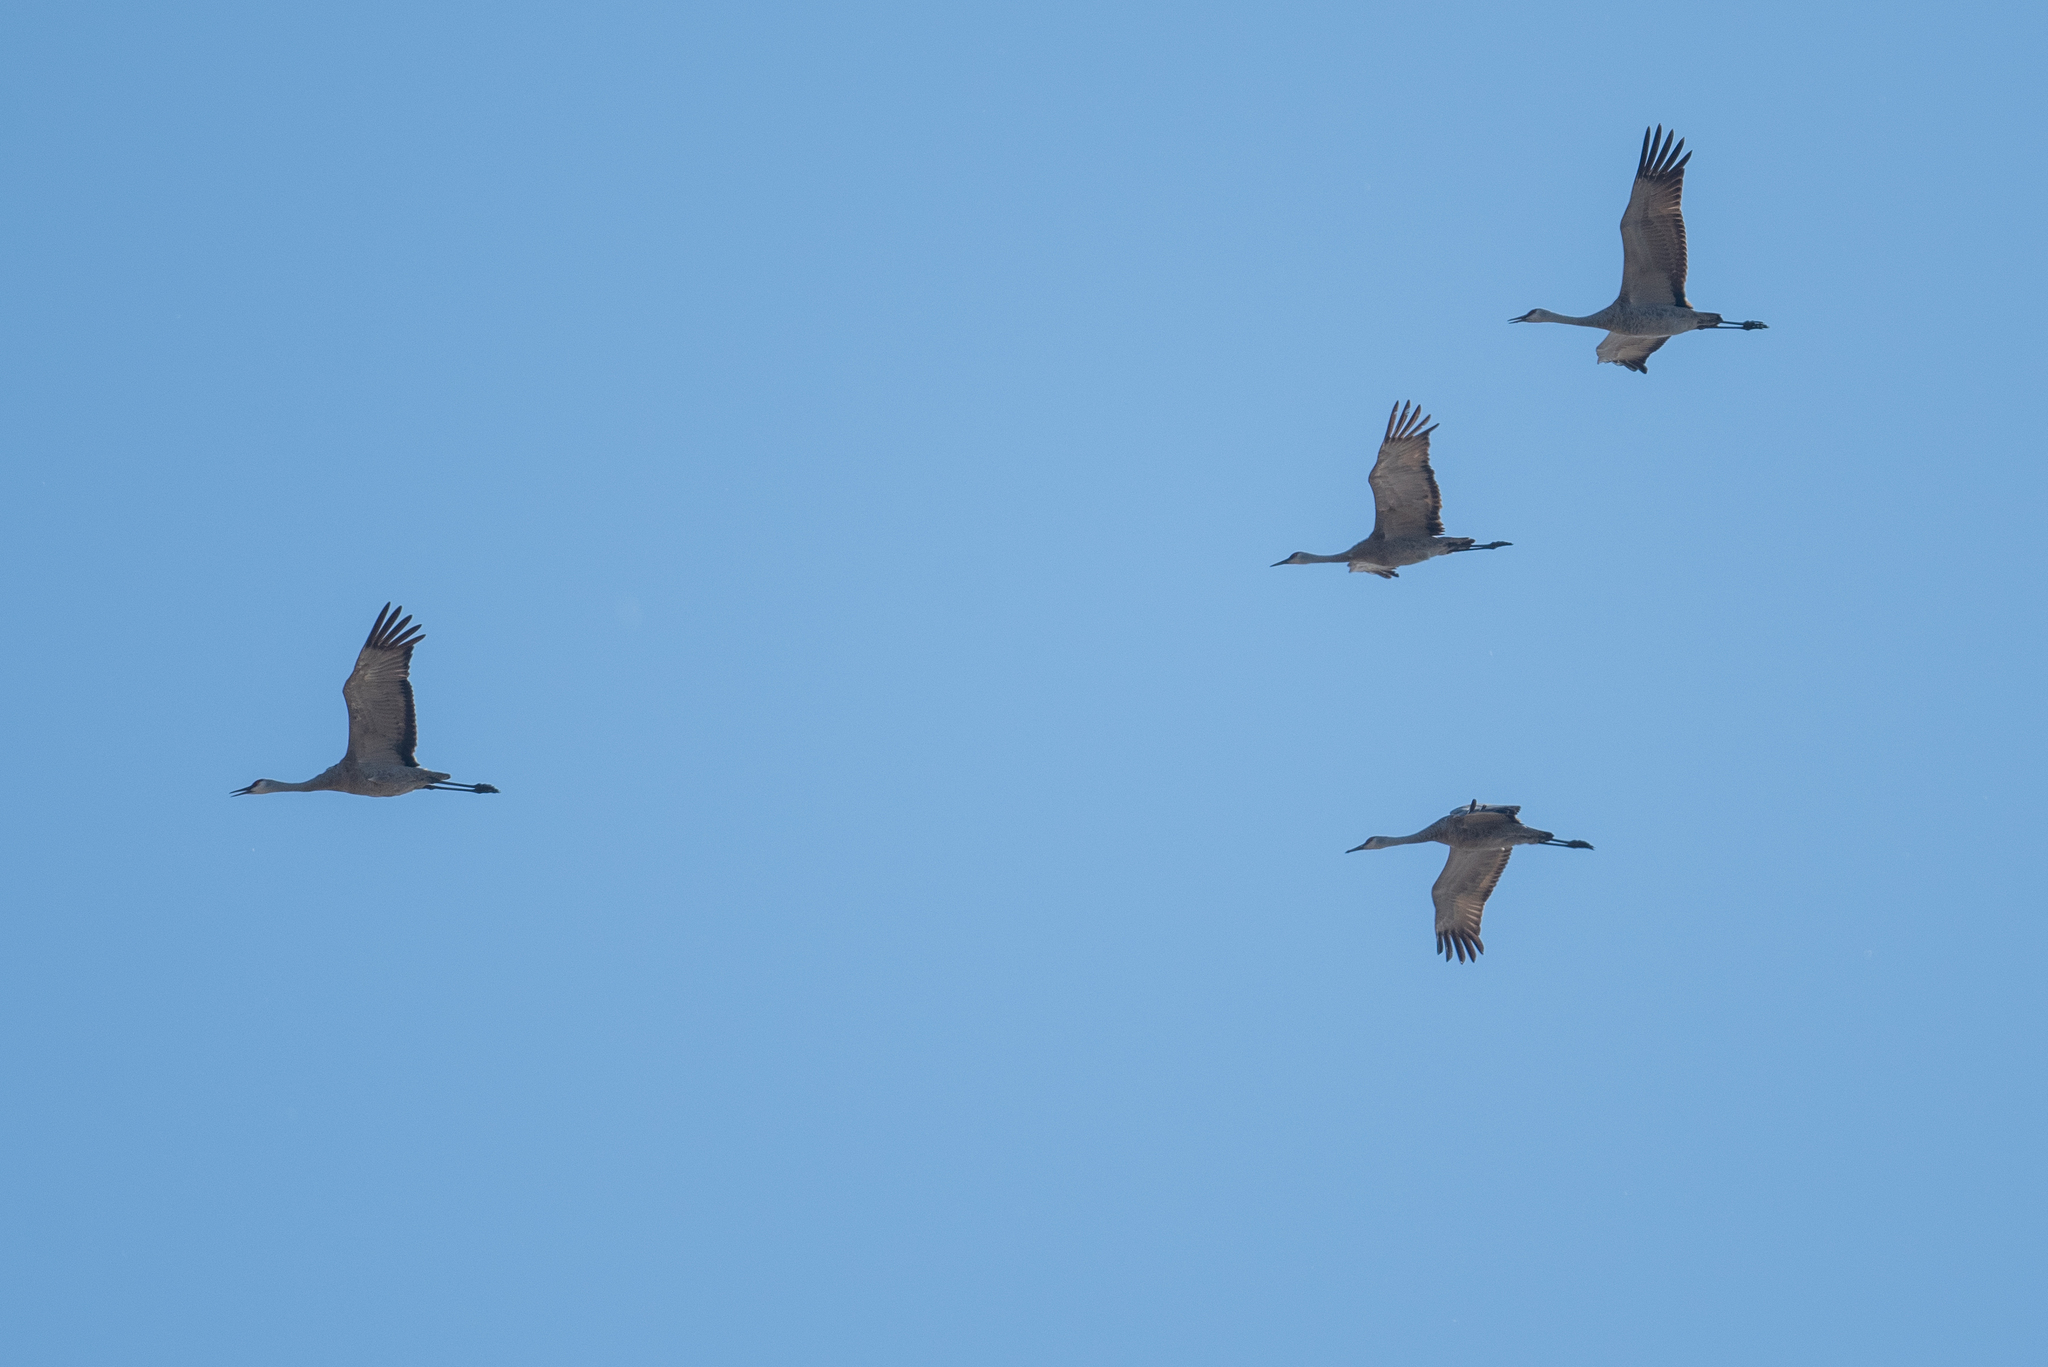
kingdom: Animalia
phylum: Chordata
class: Aves
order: Gruiformes
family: Gruidae
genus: Grus
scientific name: Grus canadensis
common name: Sandhill crane
